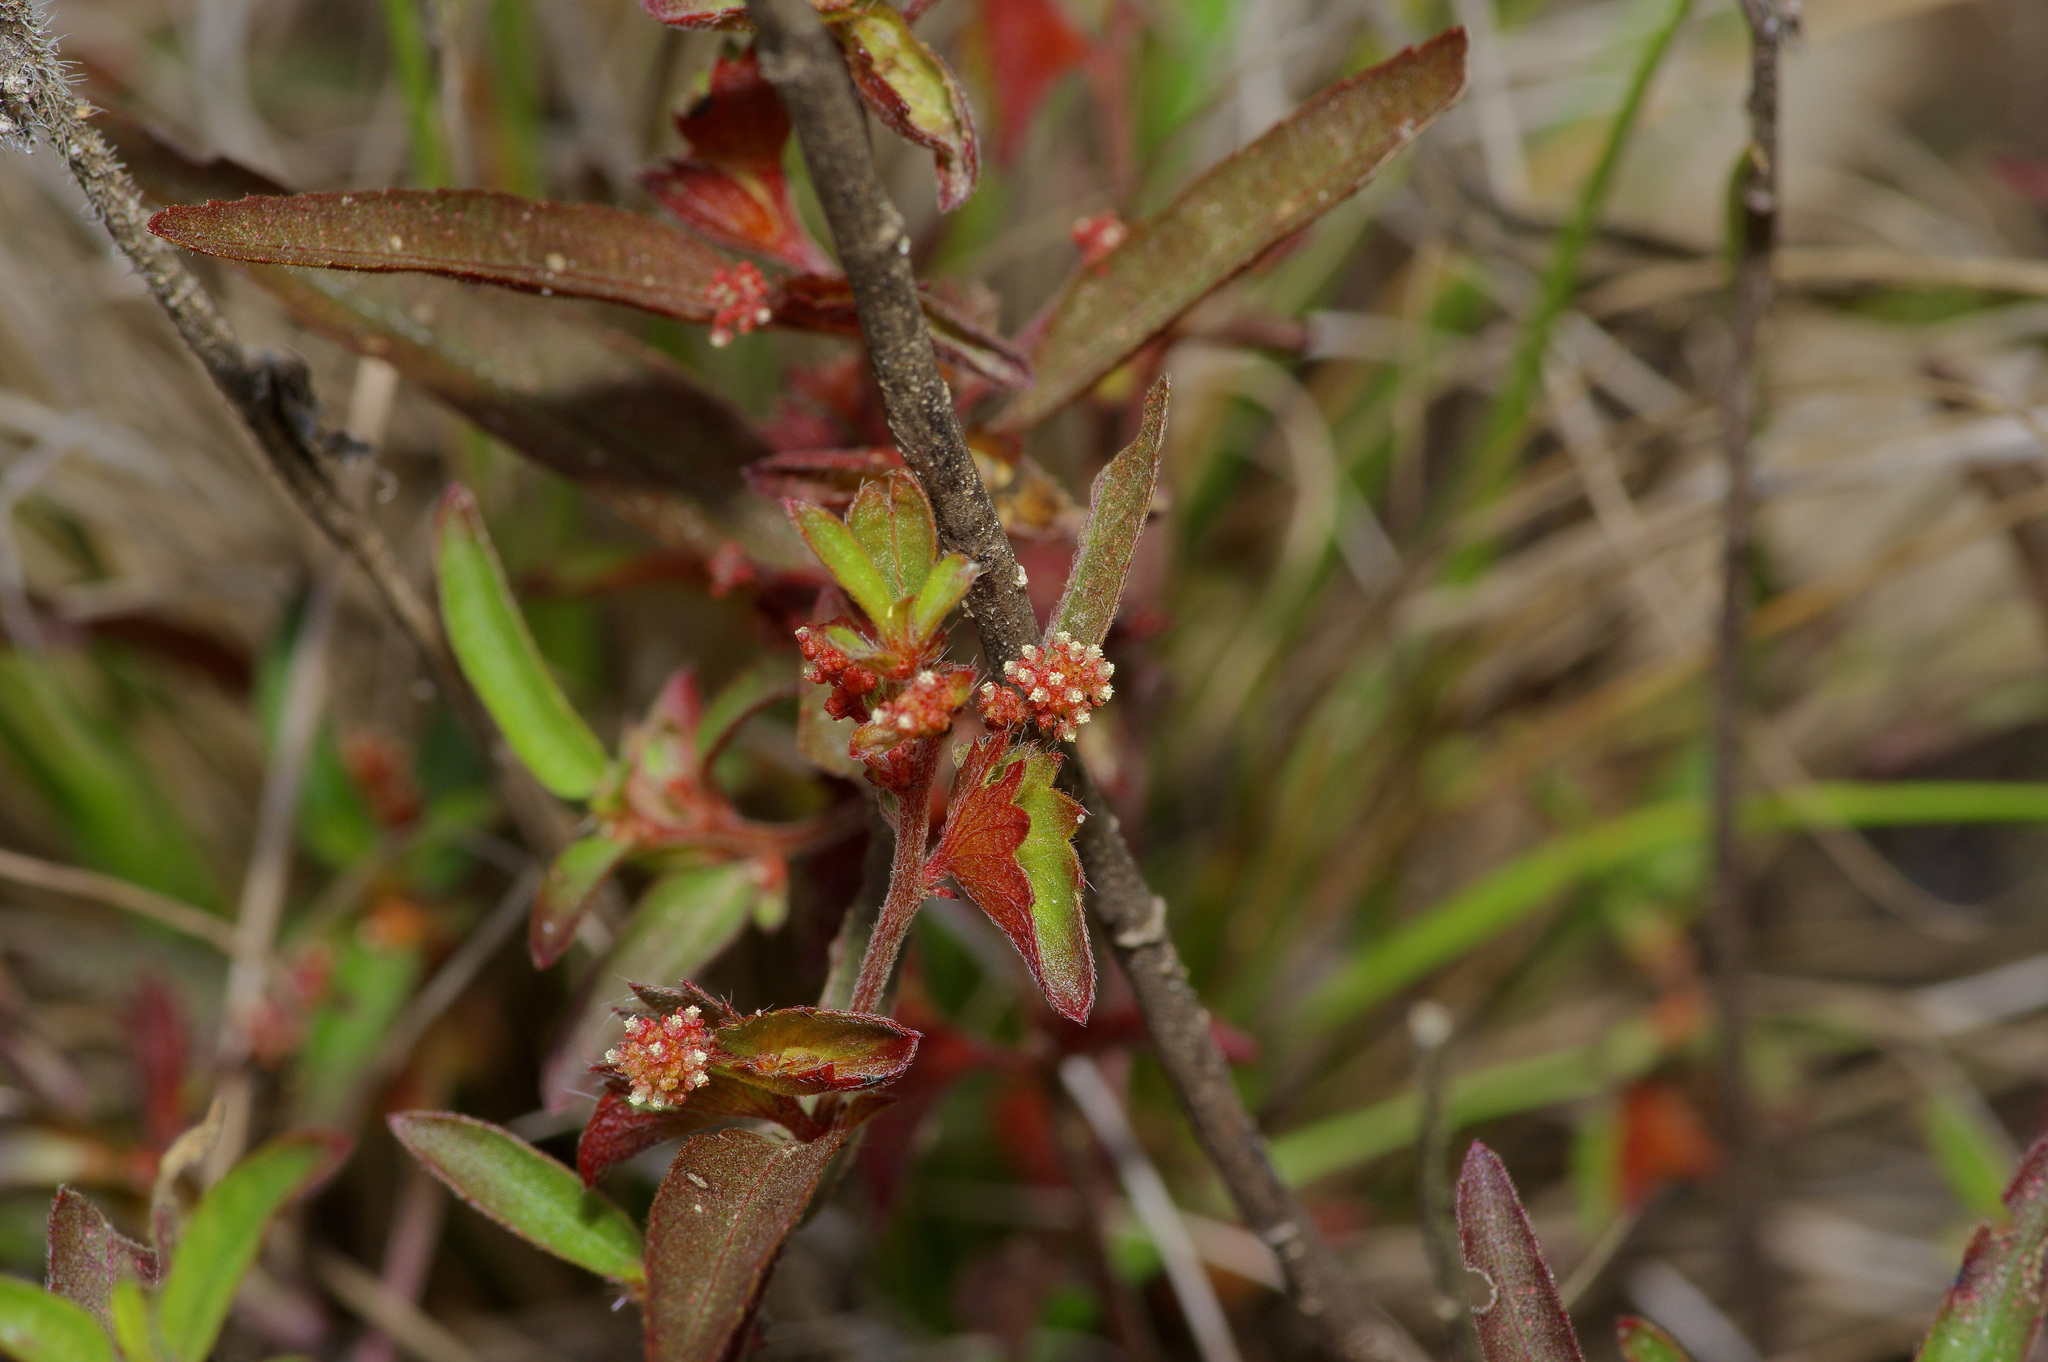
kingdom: Plantae
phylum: Tracheophyta
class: Magnoliopsida
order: Malpighiales
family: Euphorbiaceae
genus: Acalypha
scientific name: Acalypha gracilens
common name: Slender three-seeded mercury
